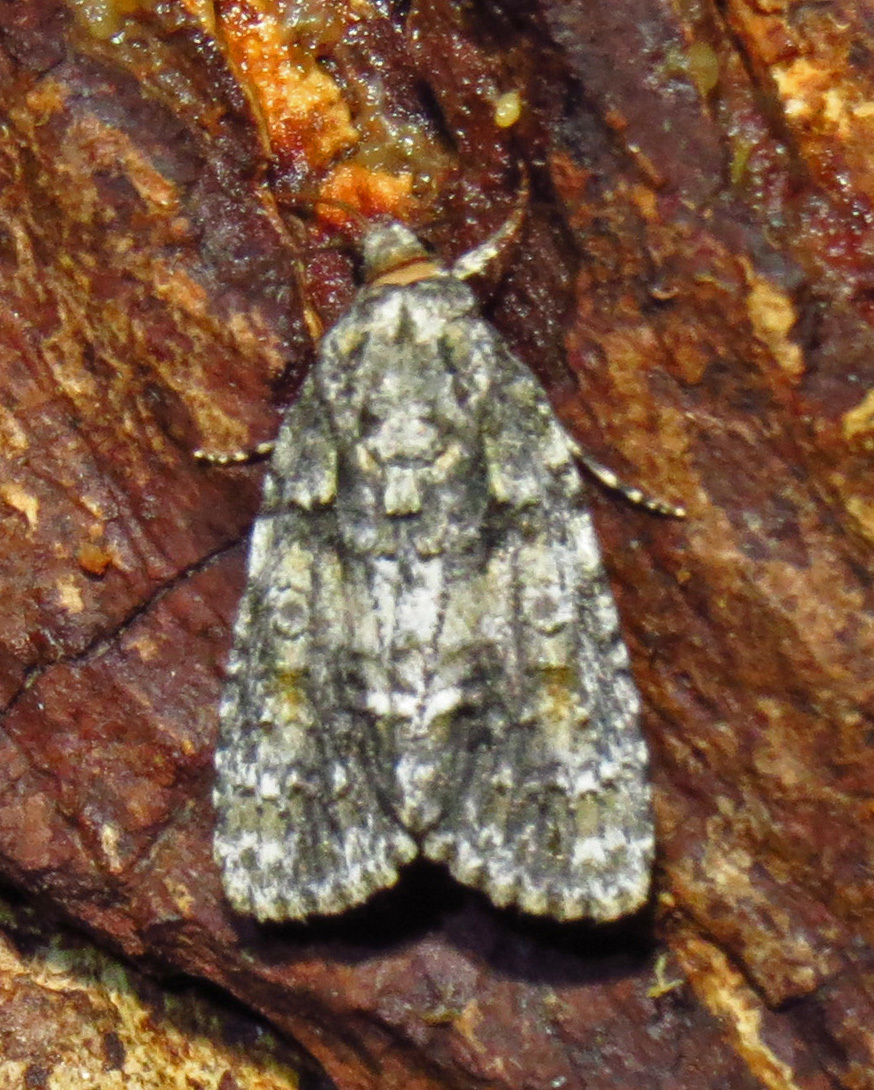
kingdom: Animalia
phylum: Arthropoda
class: Insecta
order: Lepidoptera
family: Noctuidae
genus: Acronicta
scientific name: Acronicta increta
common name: Eclipsed oak dagger
